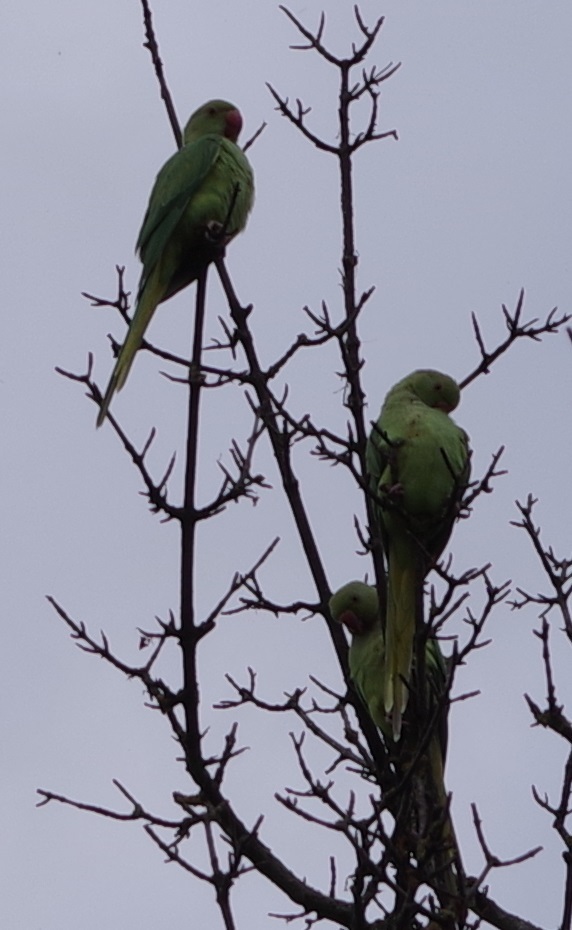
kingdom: Animalia
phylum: Chordata
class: Aves
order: Psittaciformes
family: Psittacidae
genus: Psittacula
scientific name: Psittacula krameri
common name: Rose-ringed parakeet
